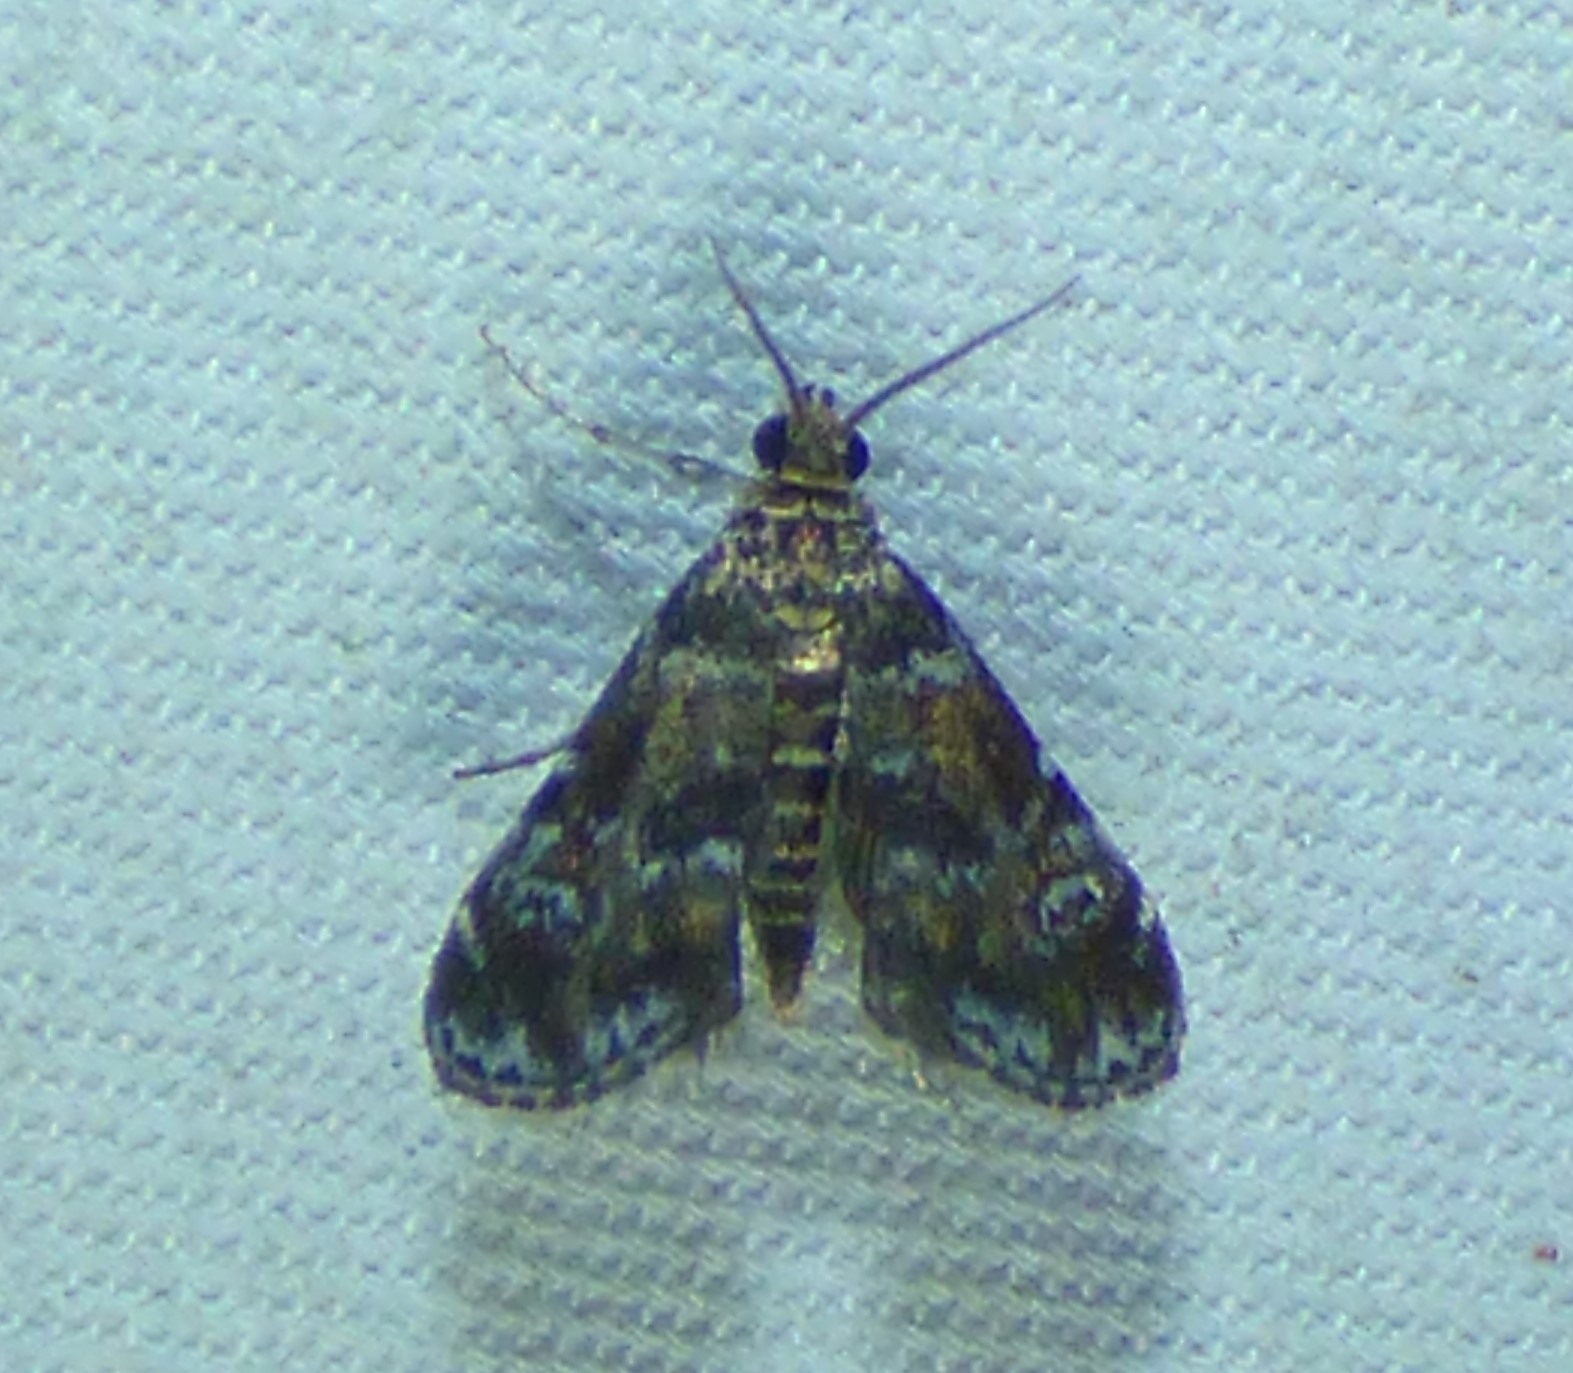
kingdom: Animalia
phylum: Arthropoda
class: Insecta
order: Lepidoptera
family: Crambidae
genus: Elophila
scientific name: Elophila obliteralis
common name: Waterlily leafcutter moth
